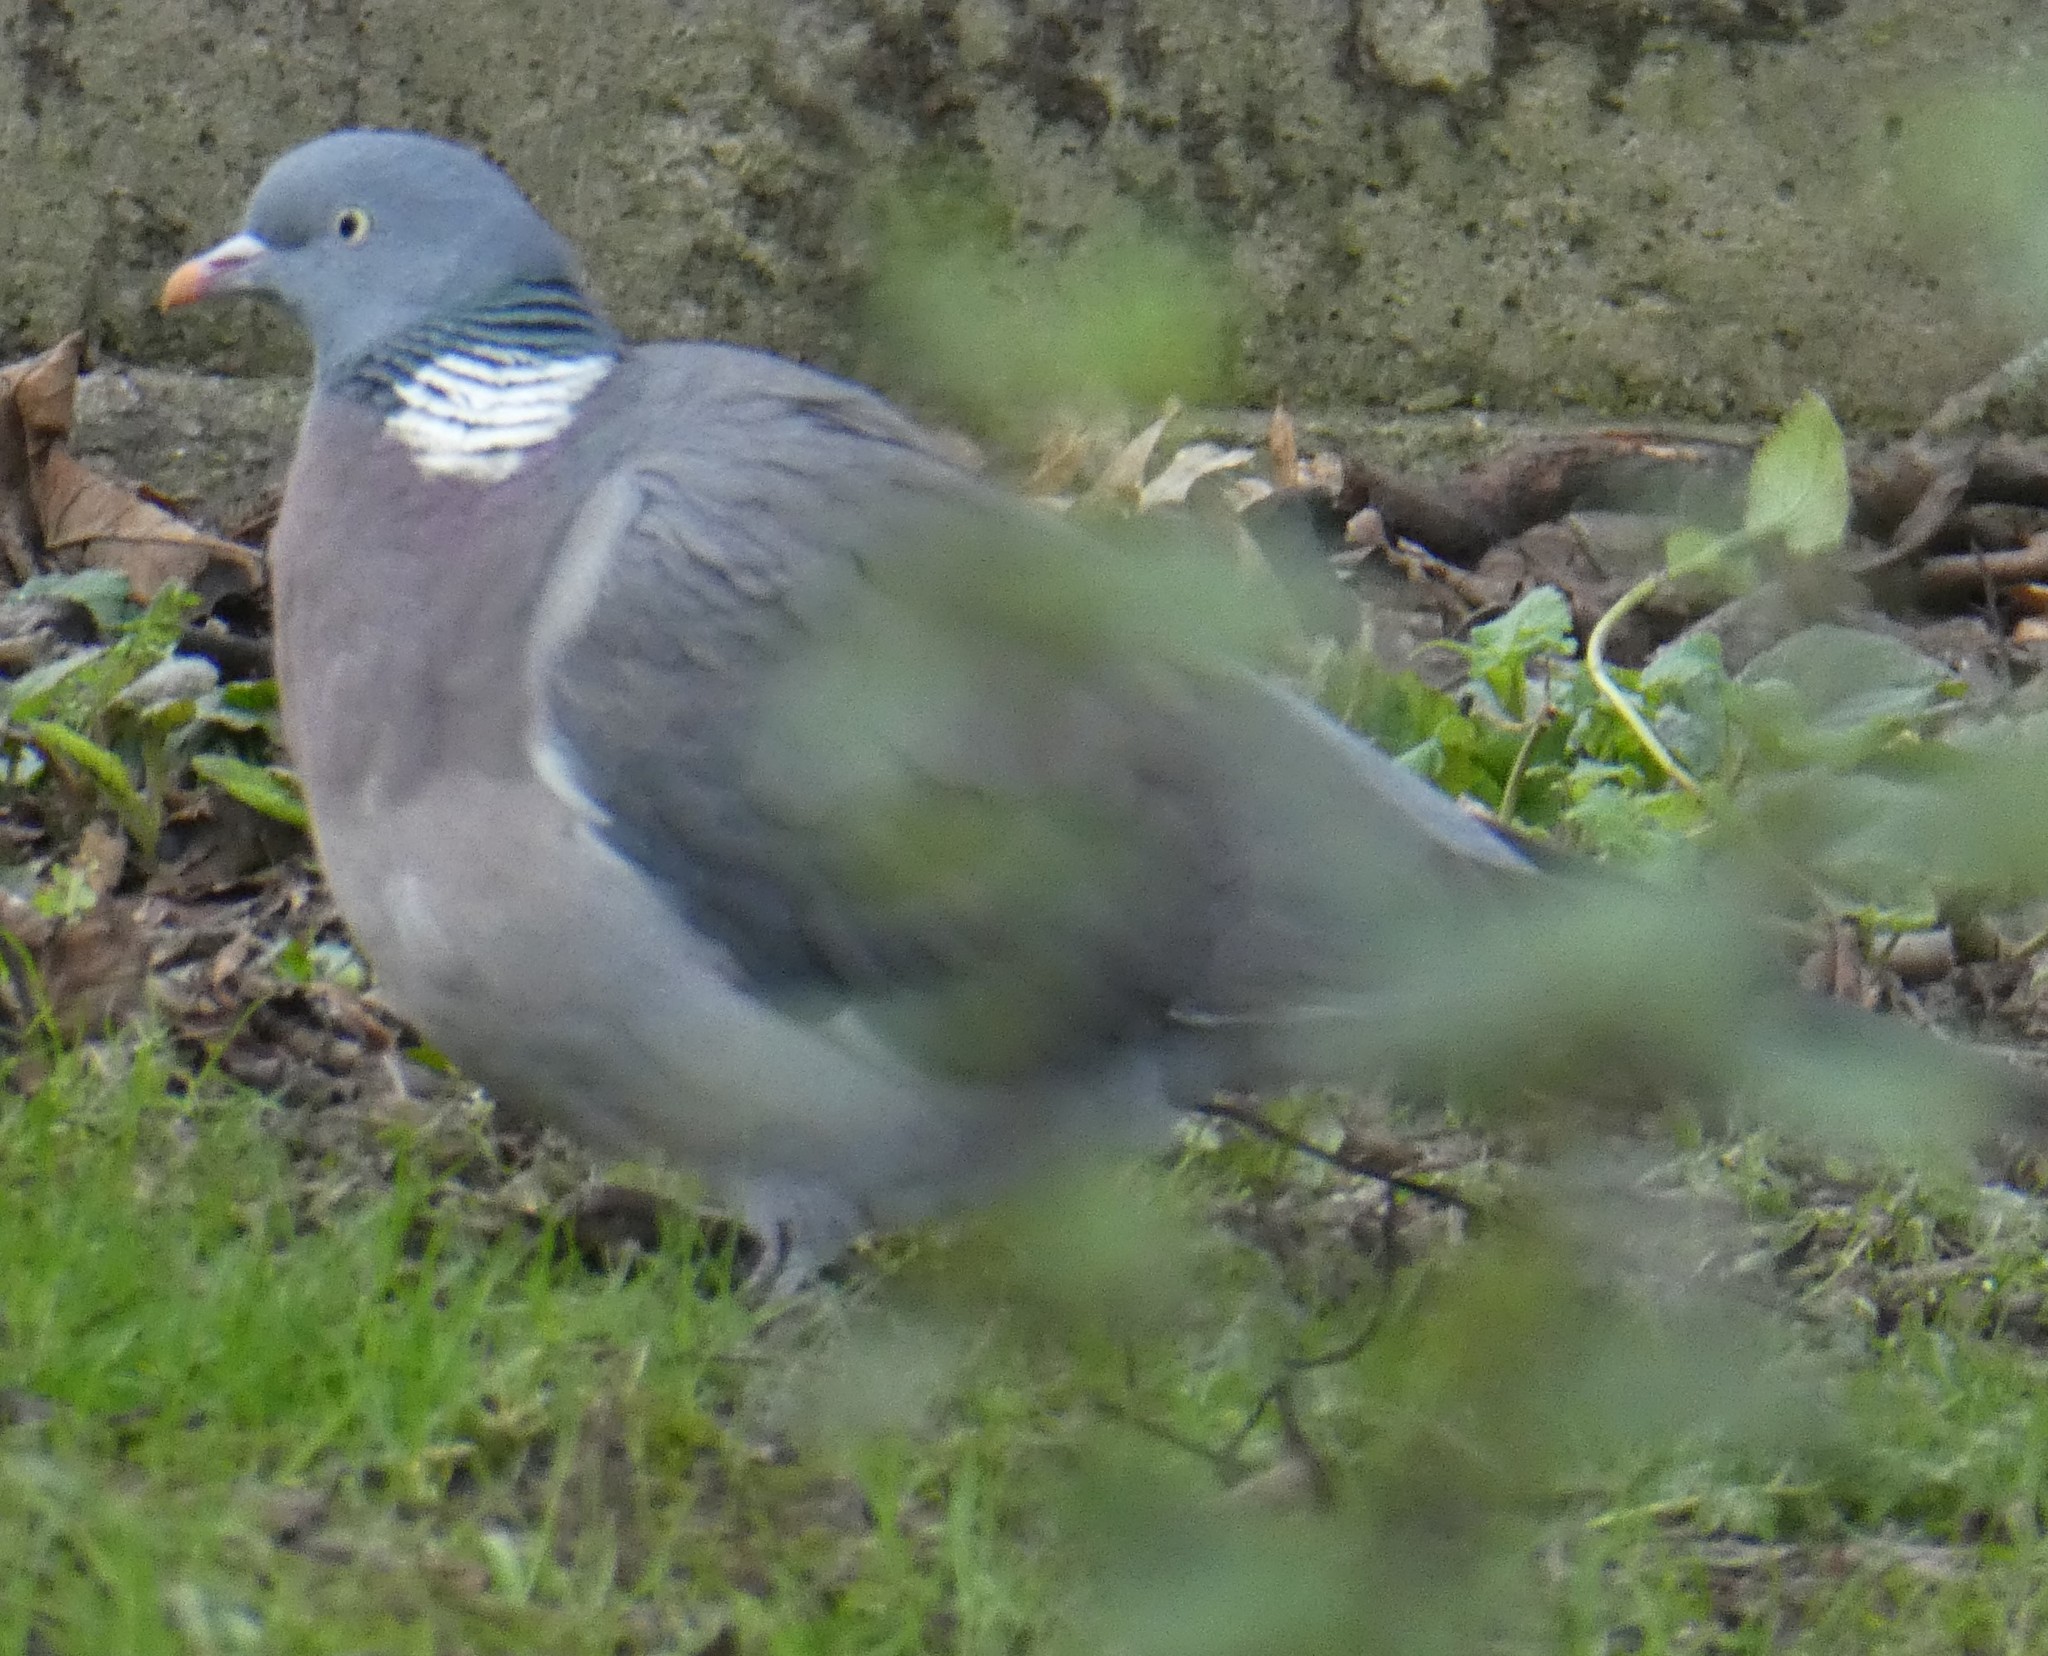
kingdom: Animalia
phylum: Chordata
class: Aves
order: Columbiformes
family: Columbidae
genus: Columba
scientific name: Columba palumbus
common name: Common wood pigeon
